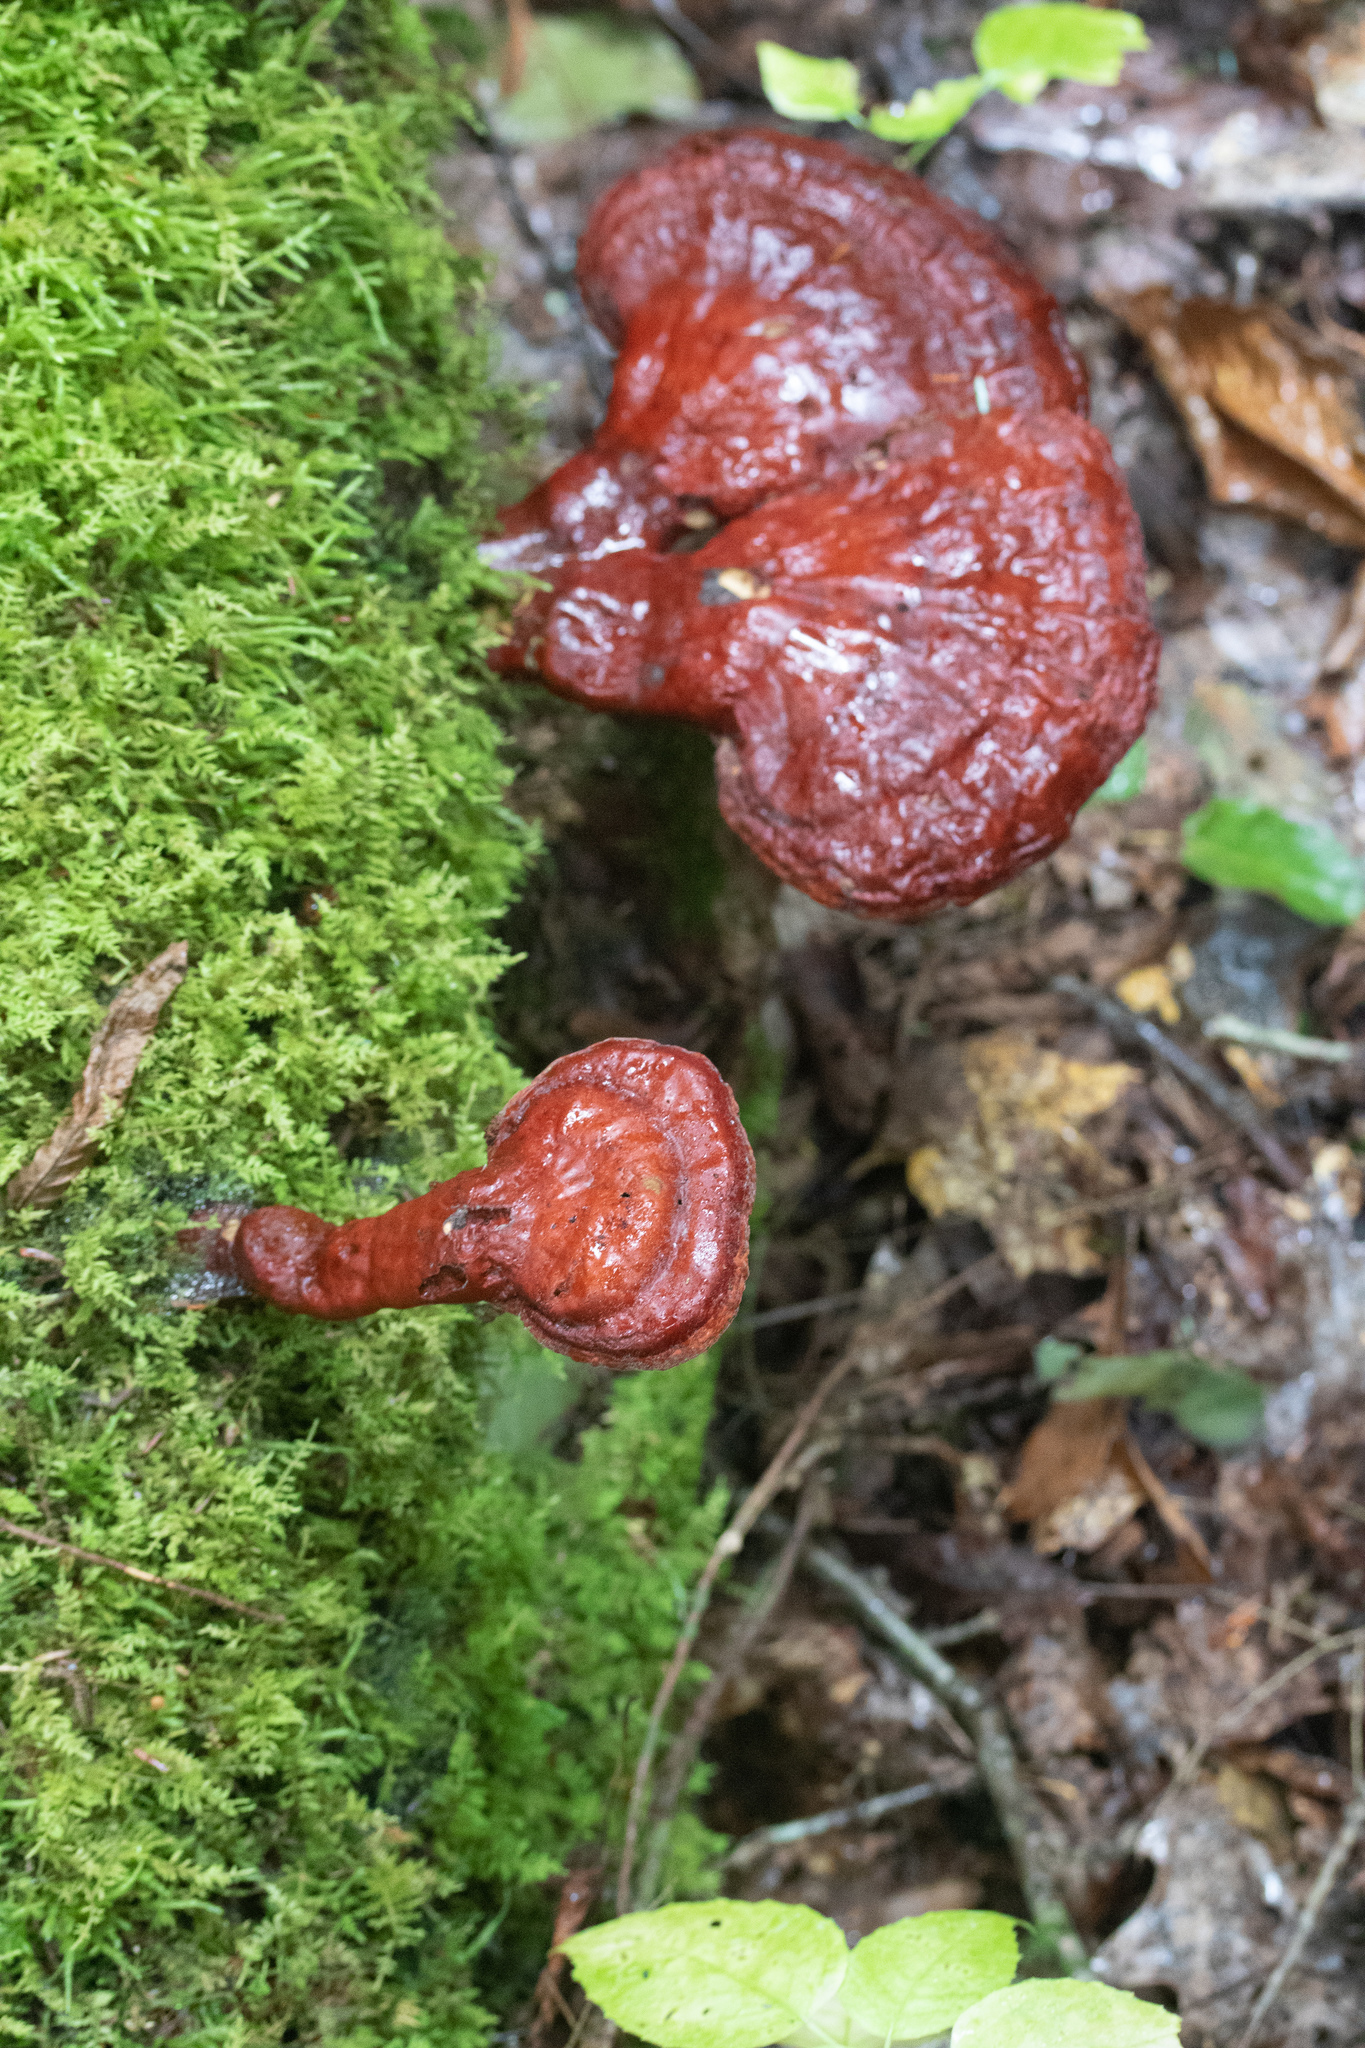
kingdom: Fungi
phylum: Basidiomycota
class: Agaricomycetes
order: Polyporales
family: Polyporaceae
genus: Ganoderma
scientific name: Ganoderma tsugae
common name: Hemlock varnish shelf
